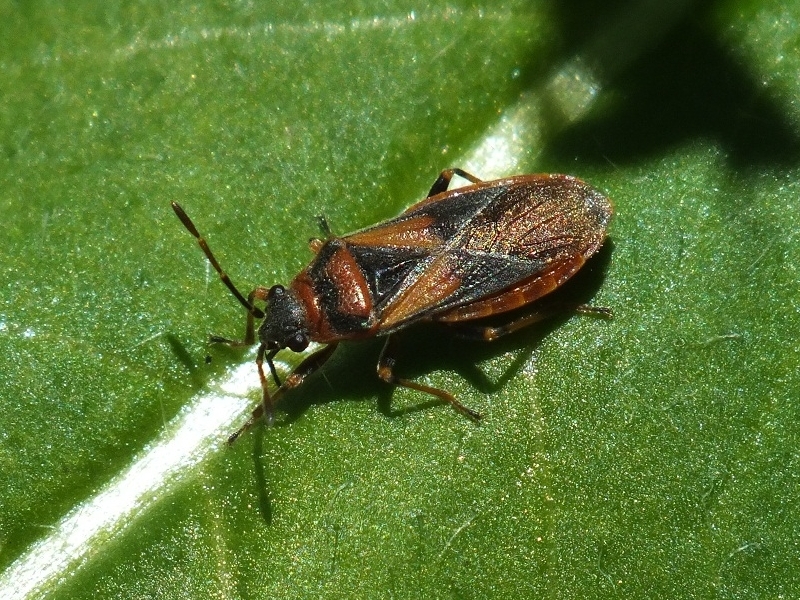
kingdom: Animalia
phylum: Arthropoda
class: Insecta
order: Hemiptera
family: Lygaeidae
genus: Arocatus
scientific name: Arocatus melanocephalus
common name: Lygaeid bug
